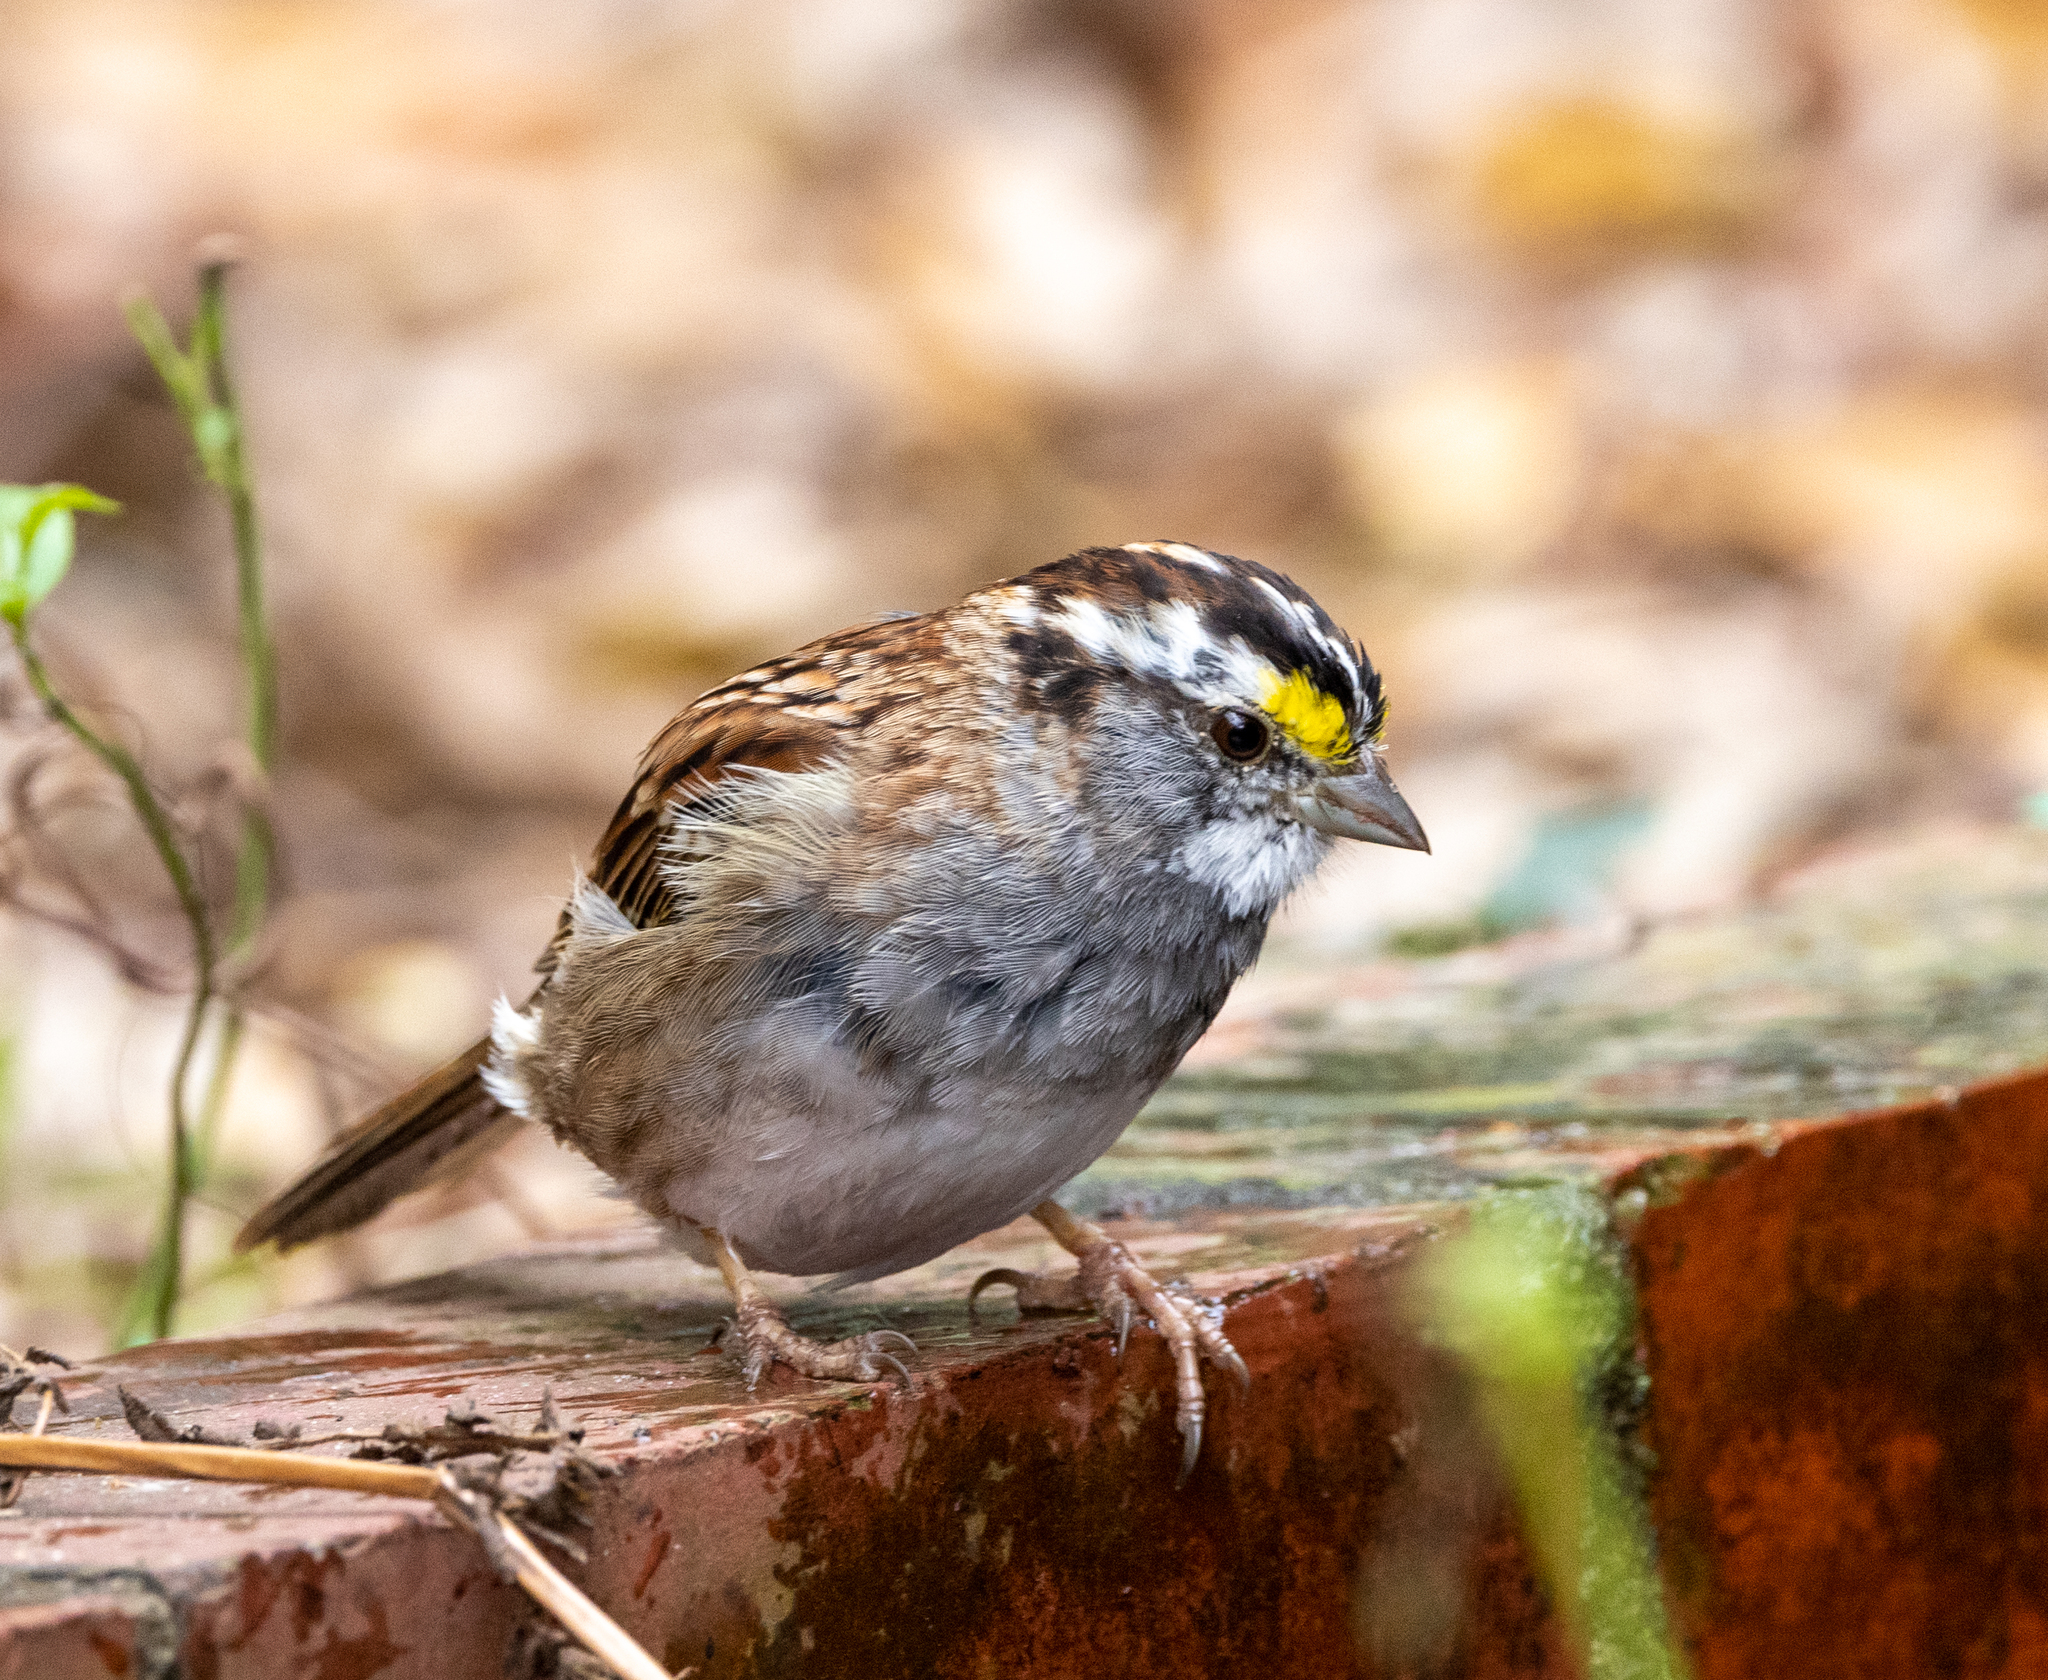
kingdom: Animalia
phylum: Chordata
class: Aves
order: Passeriformes
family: Passerellidae
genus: Zonotrichia
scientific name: Zonotrichia albicollis
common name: White-throated sparrow
